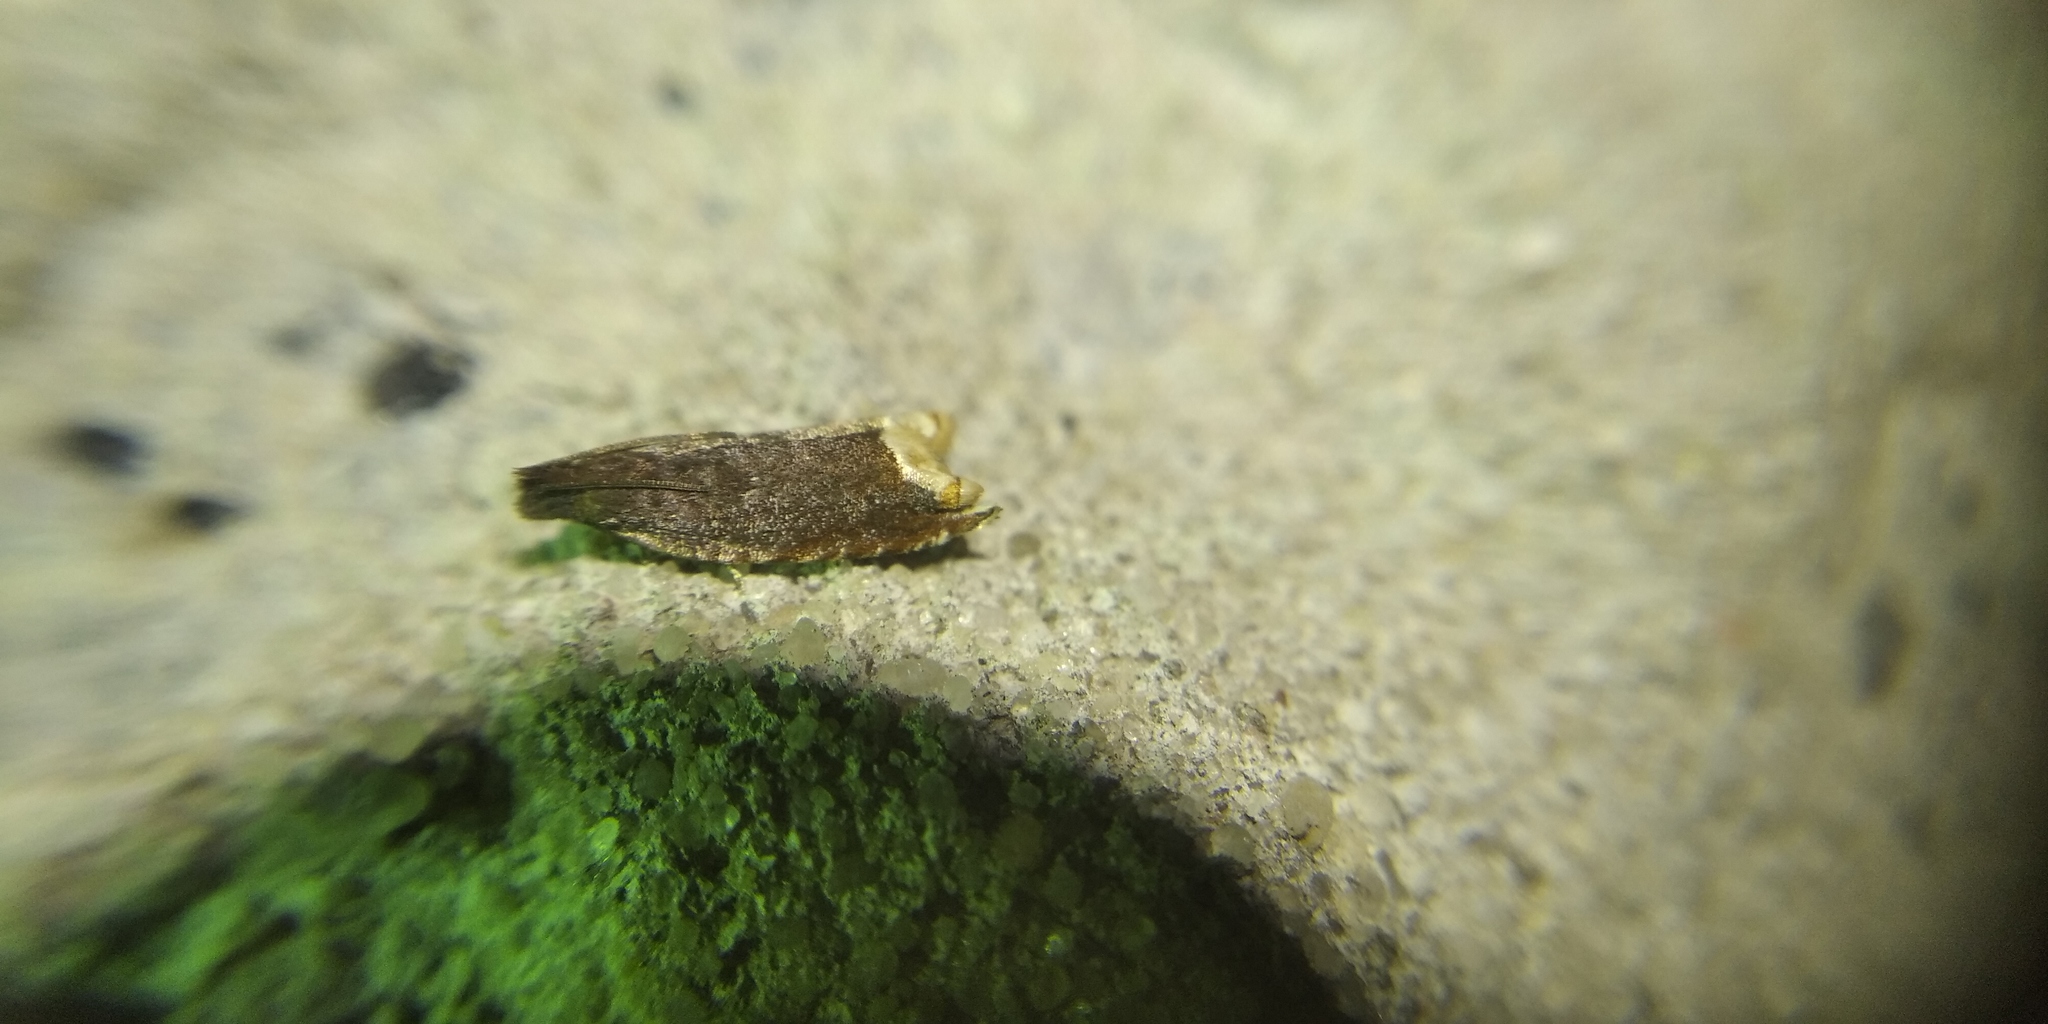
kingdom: Animalia
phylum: Arthropoda
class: Insecta
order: Lepidoptera
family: Tortricidae
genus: Ancylis
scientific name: Ancylis selenana
